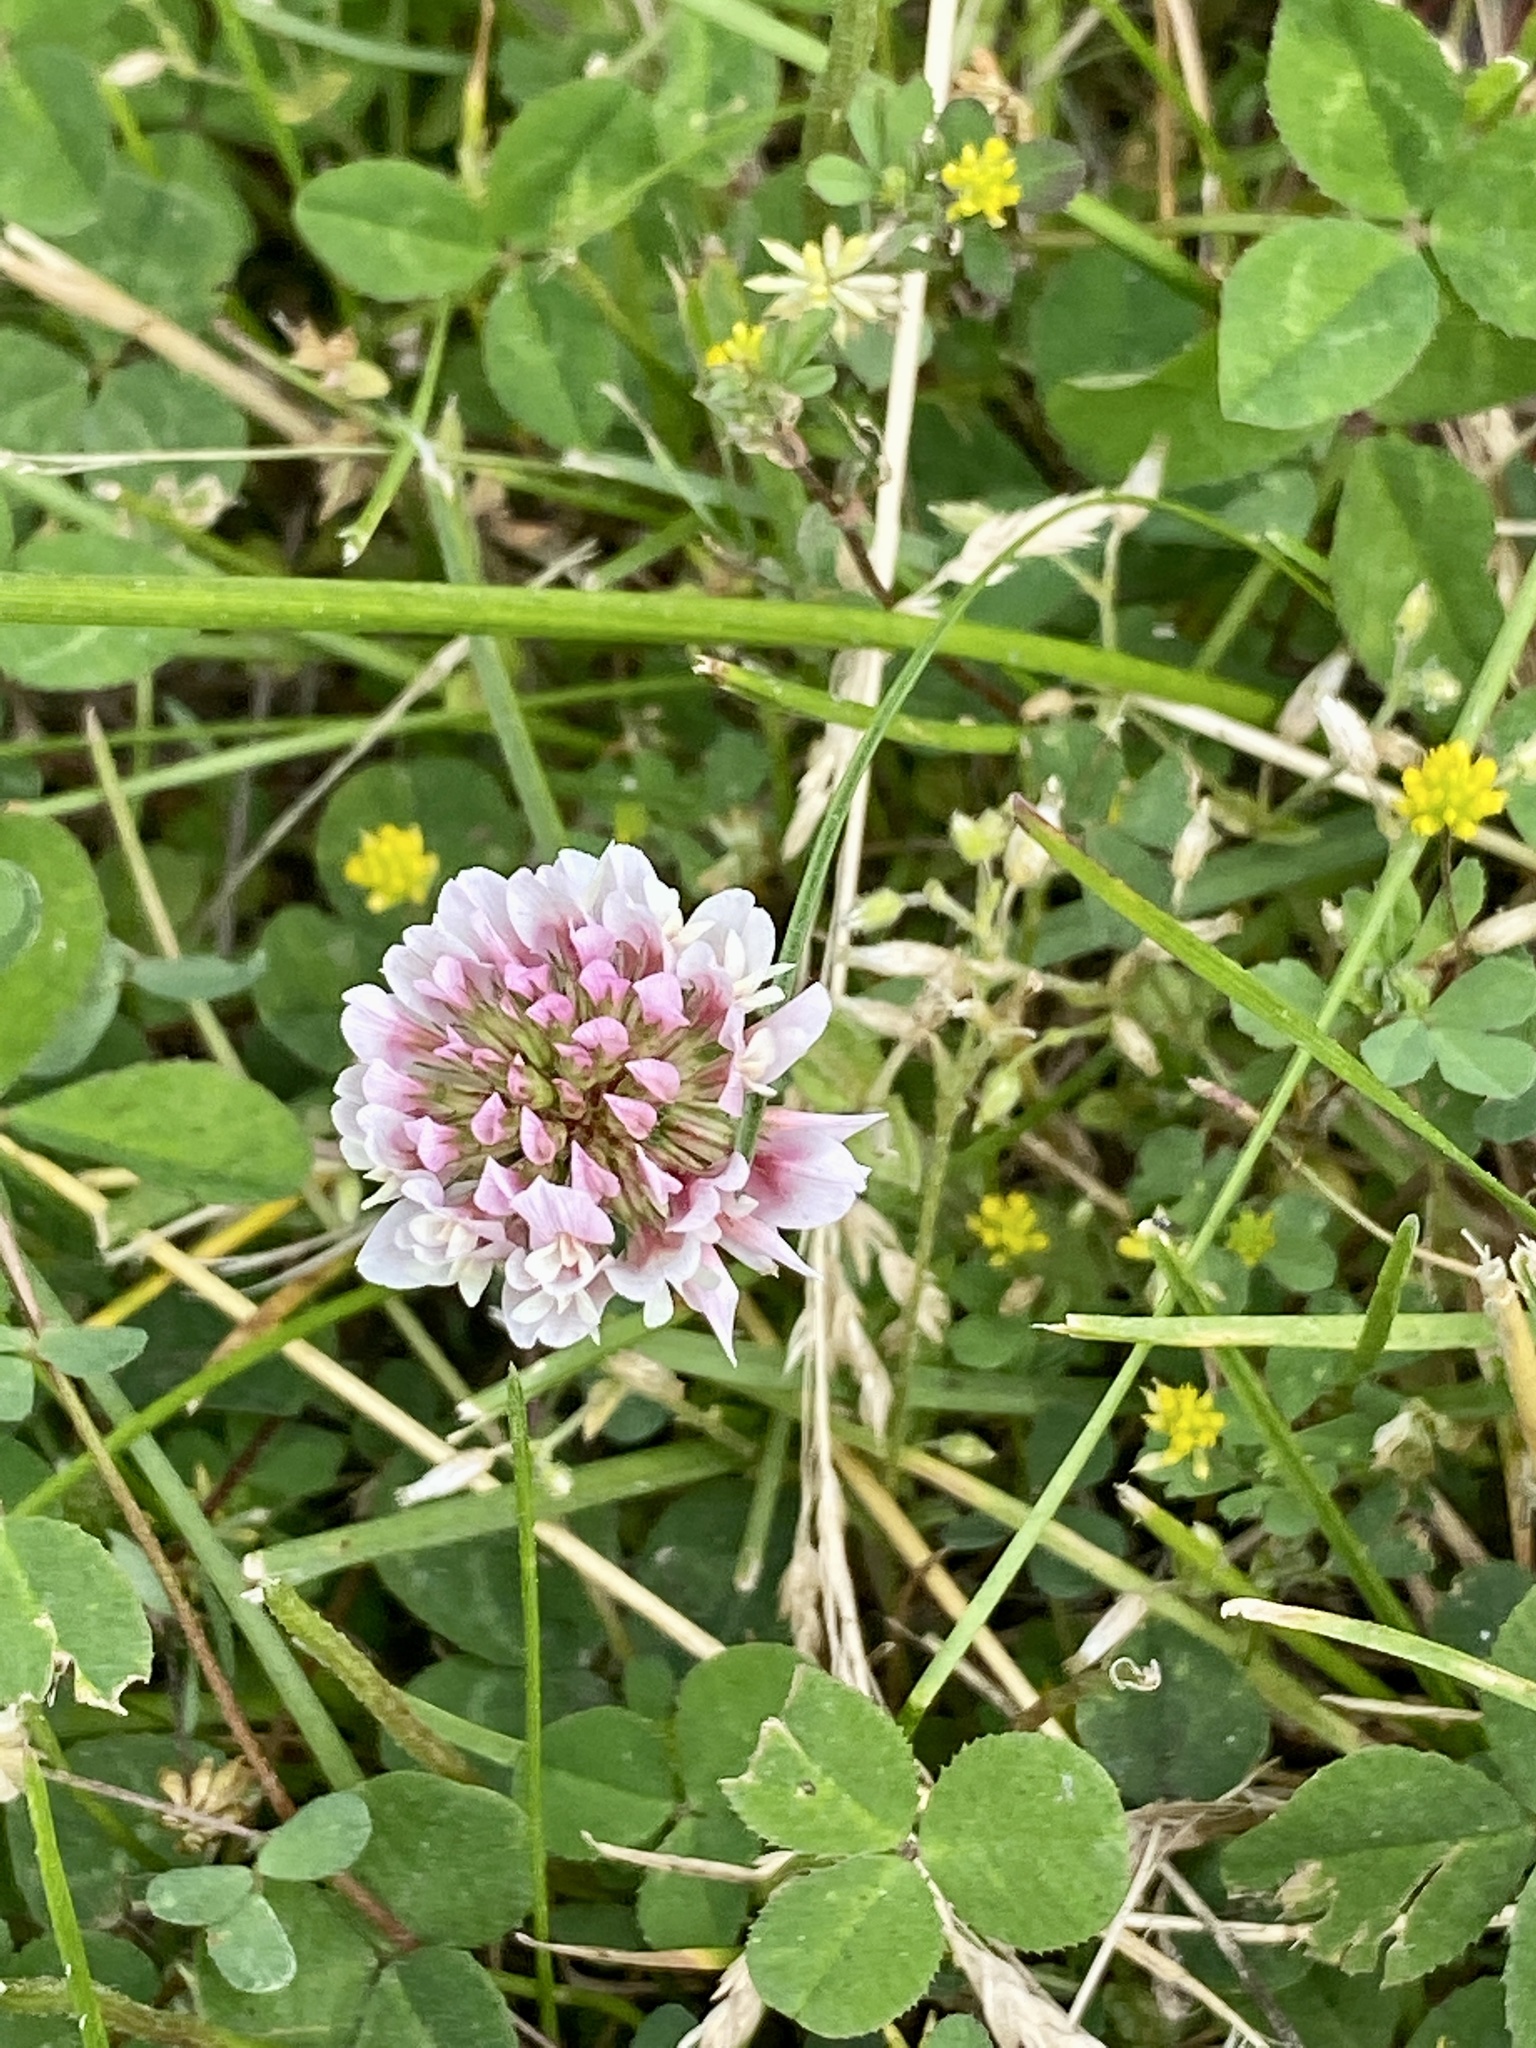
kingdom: Plantae
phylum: Tracheophyta
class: Magnoliopsida
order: Fabales
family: Fabaceae
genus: Trifolium
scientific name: Trifolium repens
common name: White clover
